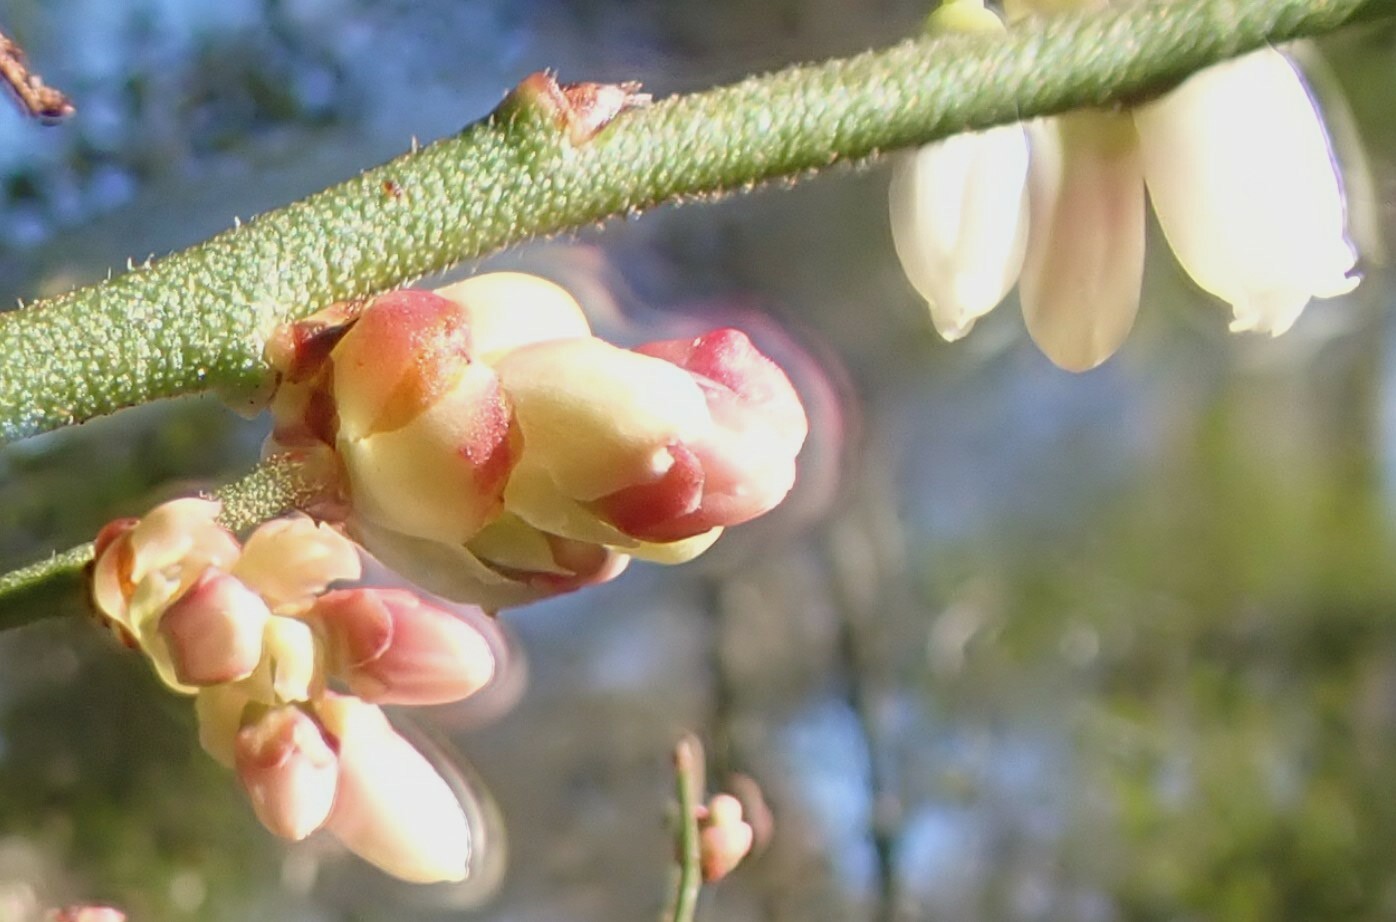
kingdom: Plantae
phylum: Tracheophyta
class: Magnoliopsida
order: Ericales
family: Ericaceae
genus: Vaccinium
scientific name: Vaccinium corymbosum
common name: Blueberry
